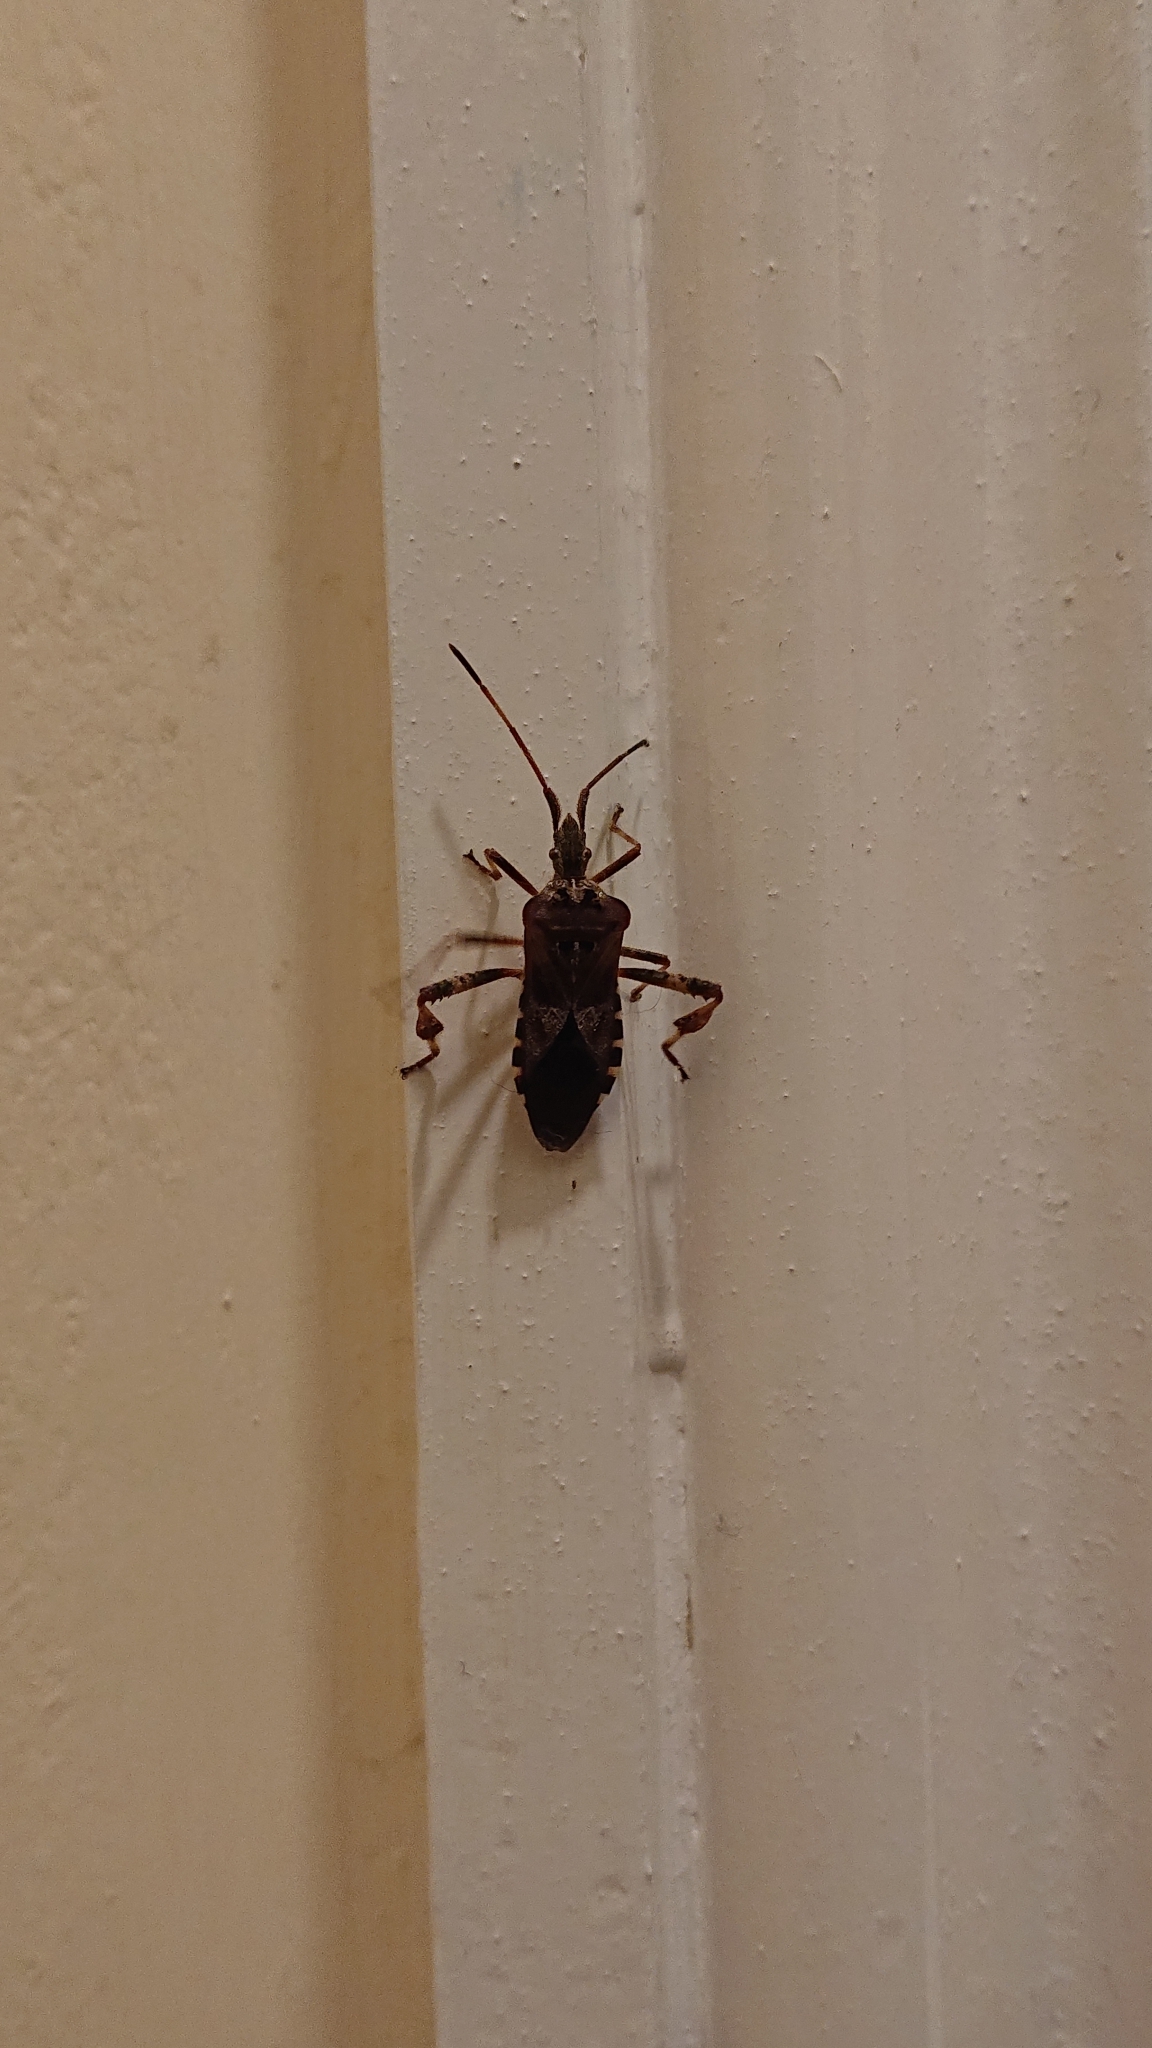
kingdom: Animalia
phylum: Arthropoda
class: Insecta
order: Hemiptera
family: Coreidae
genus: Leptoglossus
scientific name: Leptoglossus occidentalis
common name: Western conifer-seed bug
